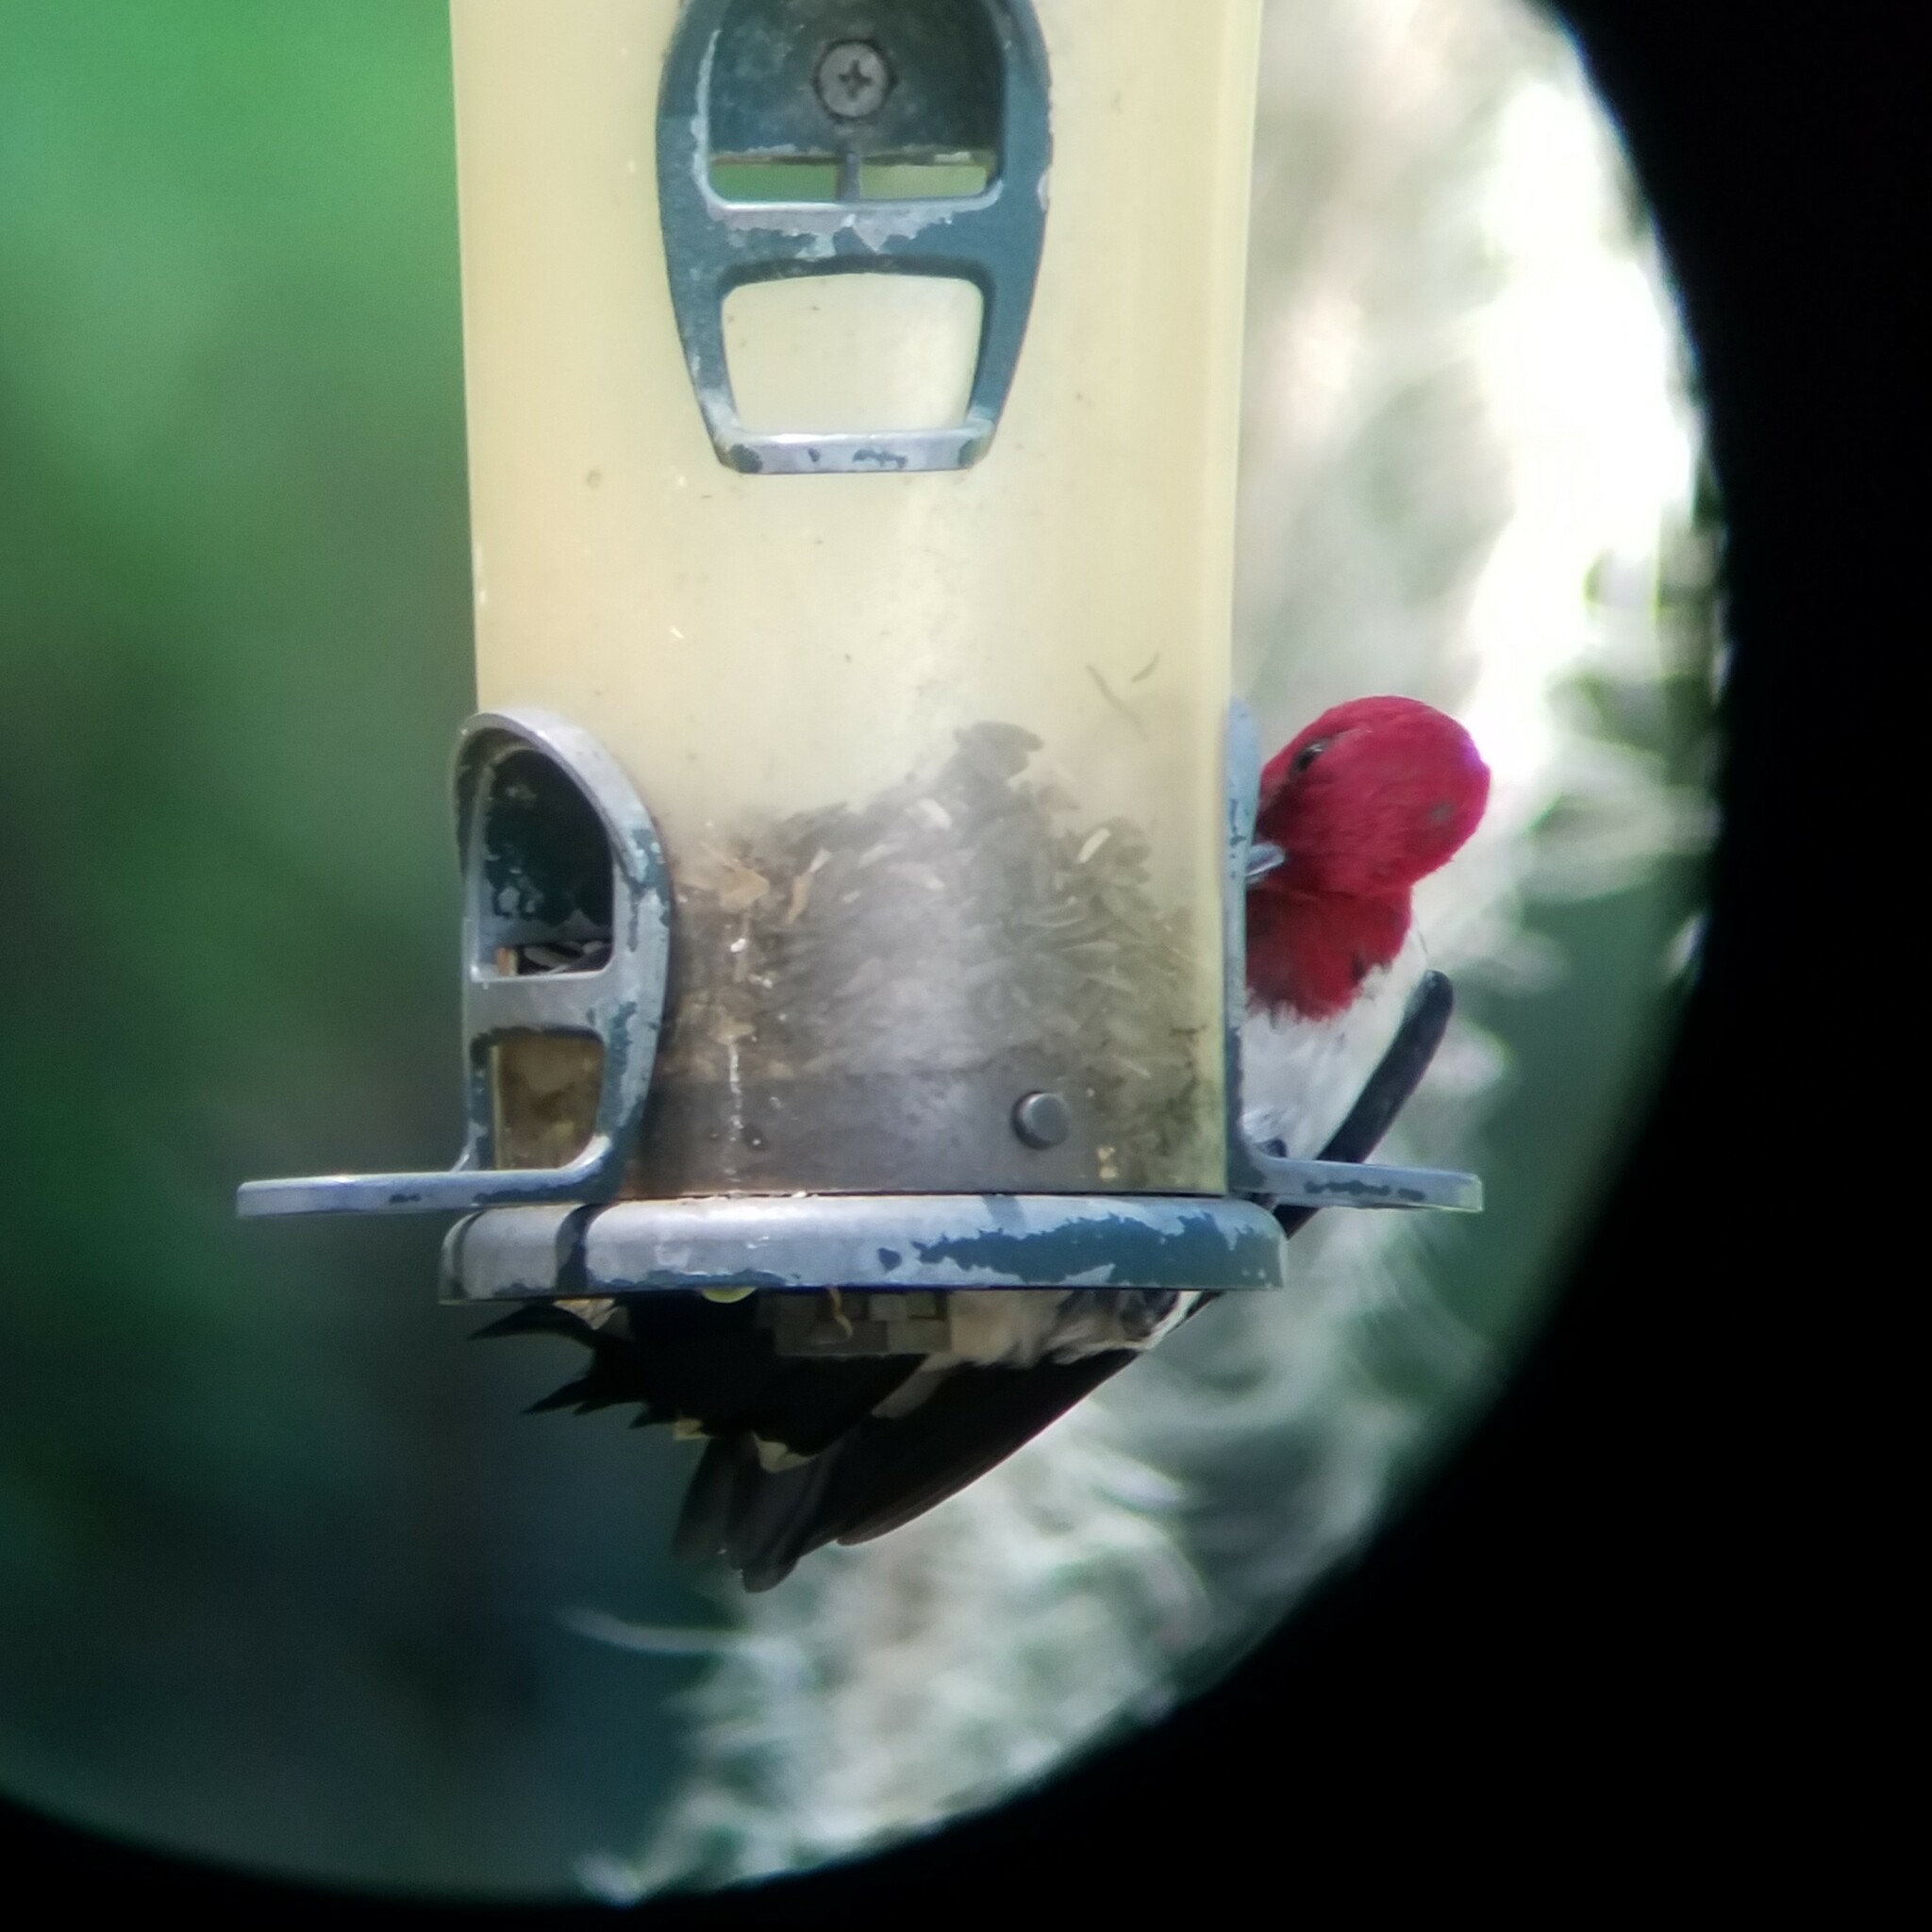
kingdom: Animalia
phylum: Chordata
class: Aves
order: Piciformes
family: Picidae
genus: Melanerpes
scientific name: Melanerpes erythrocephalus
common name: Red-headed woodpecker
